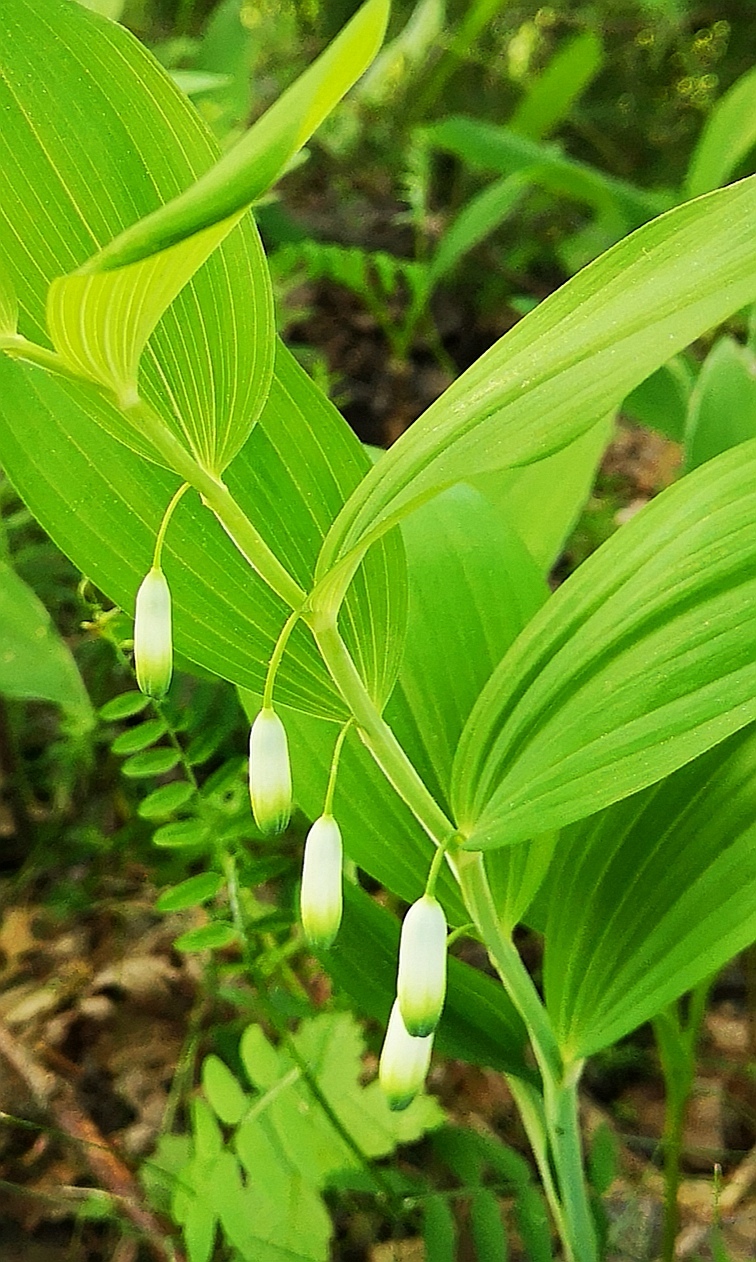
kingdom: Plantae
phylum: Tracheophyta
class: Liliopsida
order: Asparagales
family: Asparagaceae
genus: Polygonatum
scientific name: Polygonatum odoratum
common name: Angular solomon's-seal
